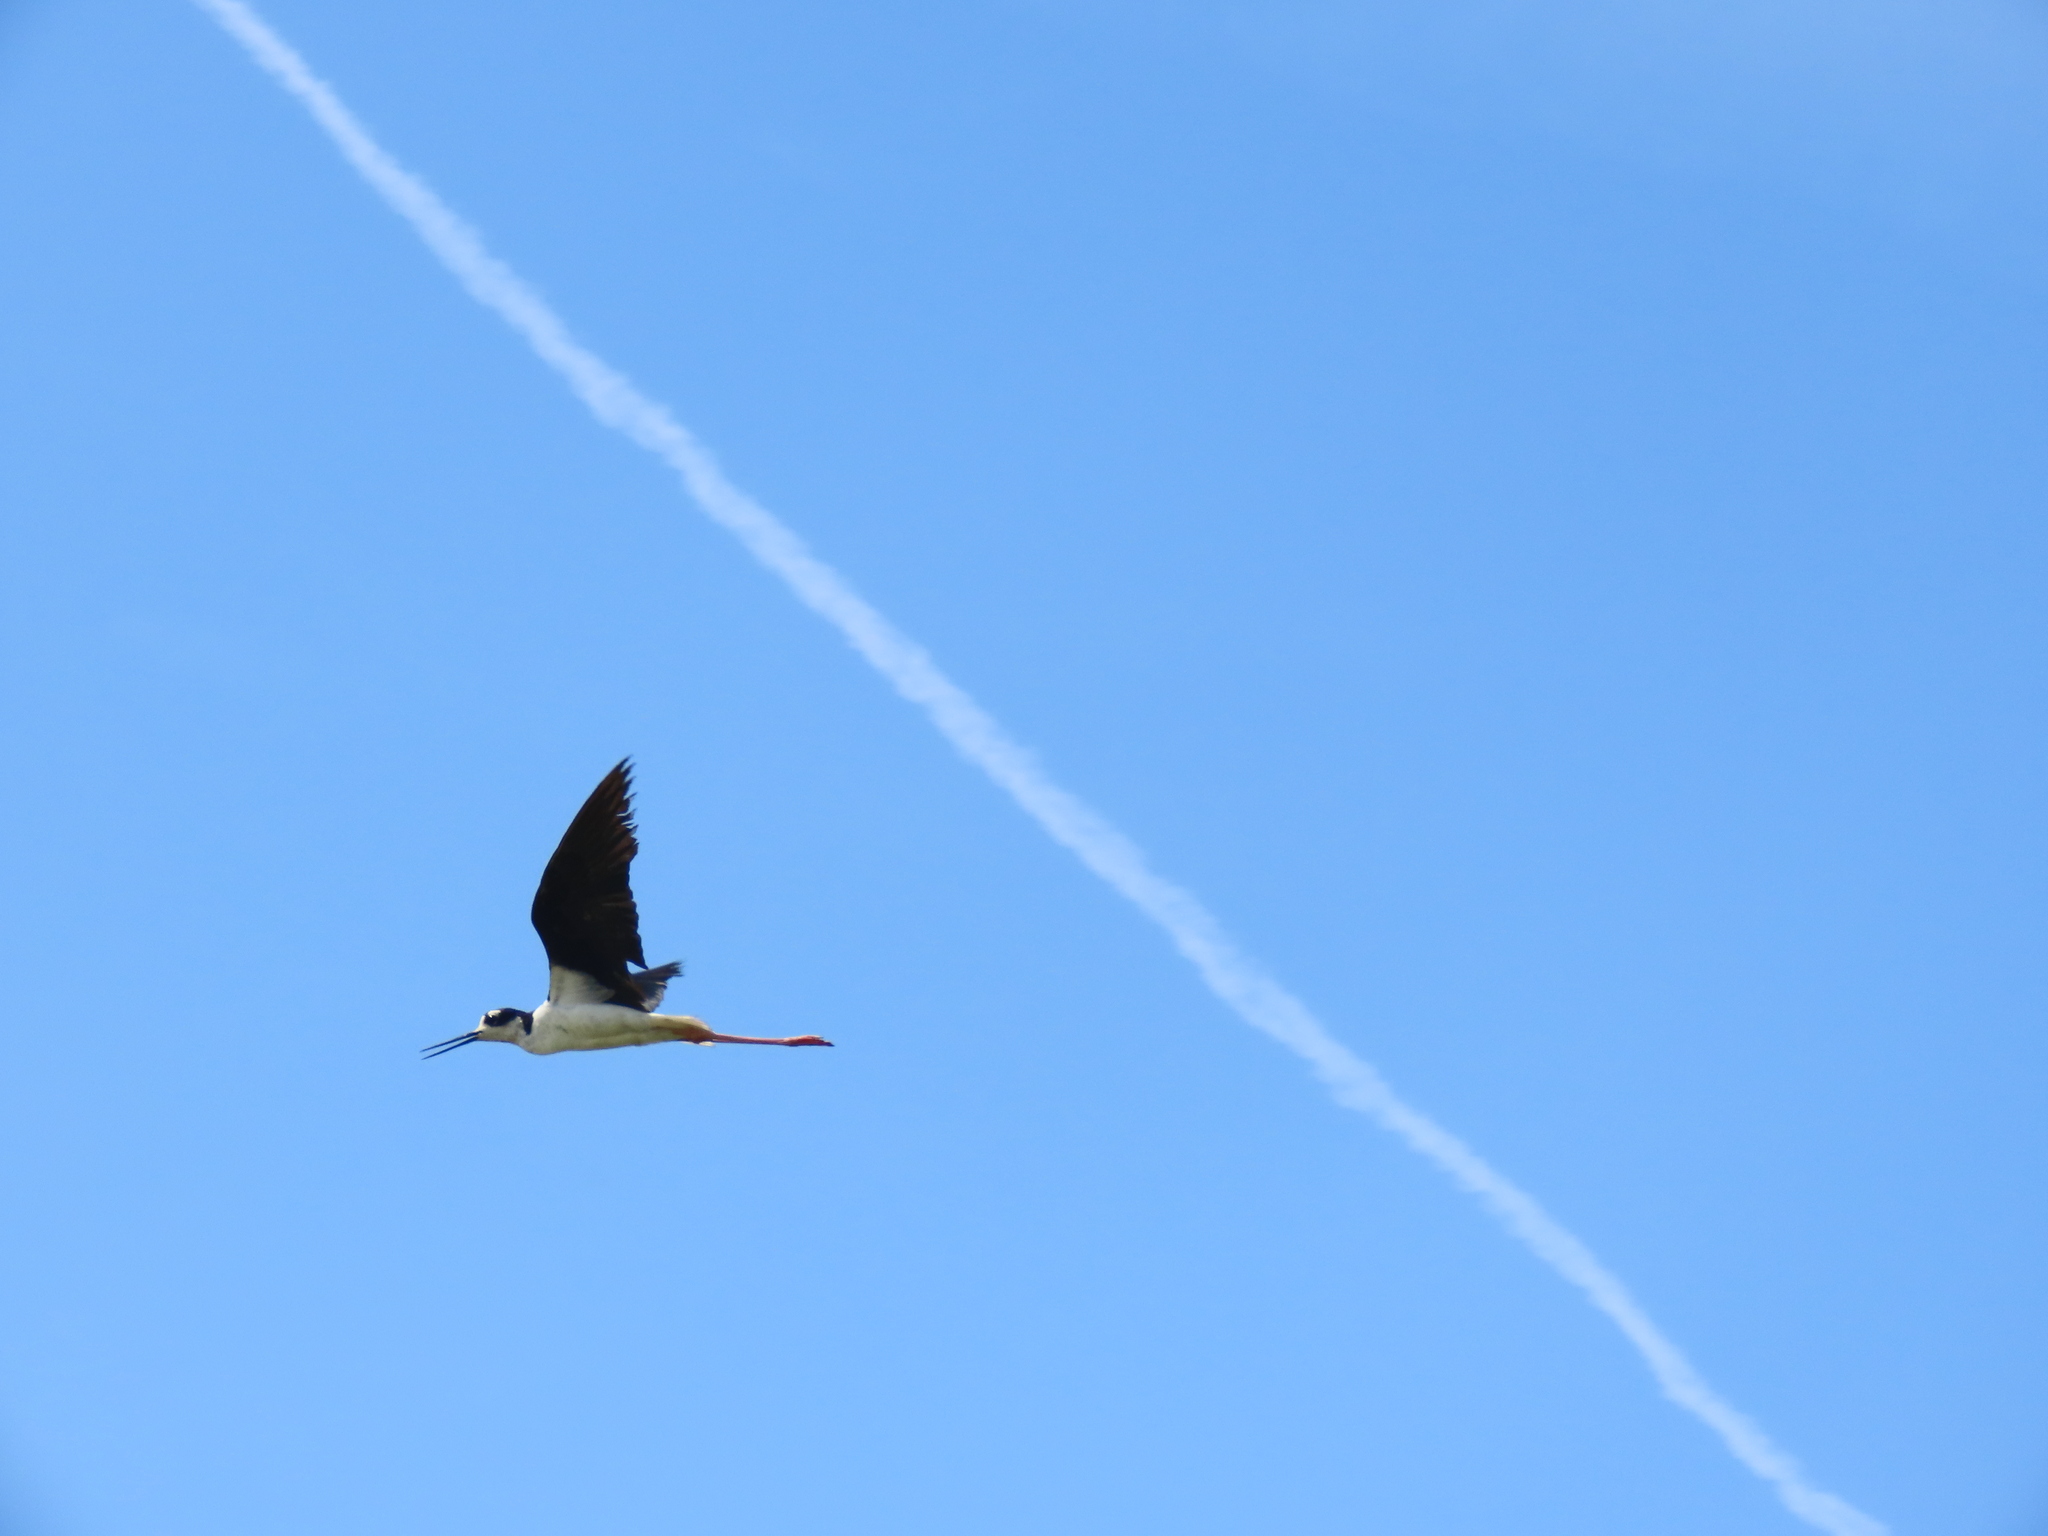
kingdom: Animalia
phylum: Chordata
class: Aves
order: Charadriiformes
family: Recurvirostridae
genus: Himantopus
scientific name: Himantopus mexicanus
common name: Black-necked stilt
